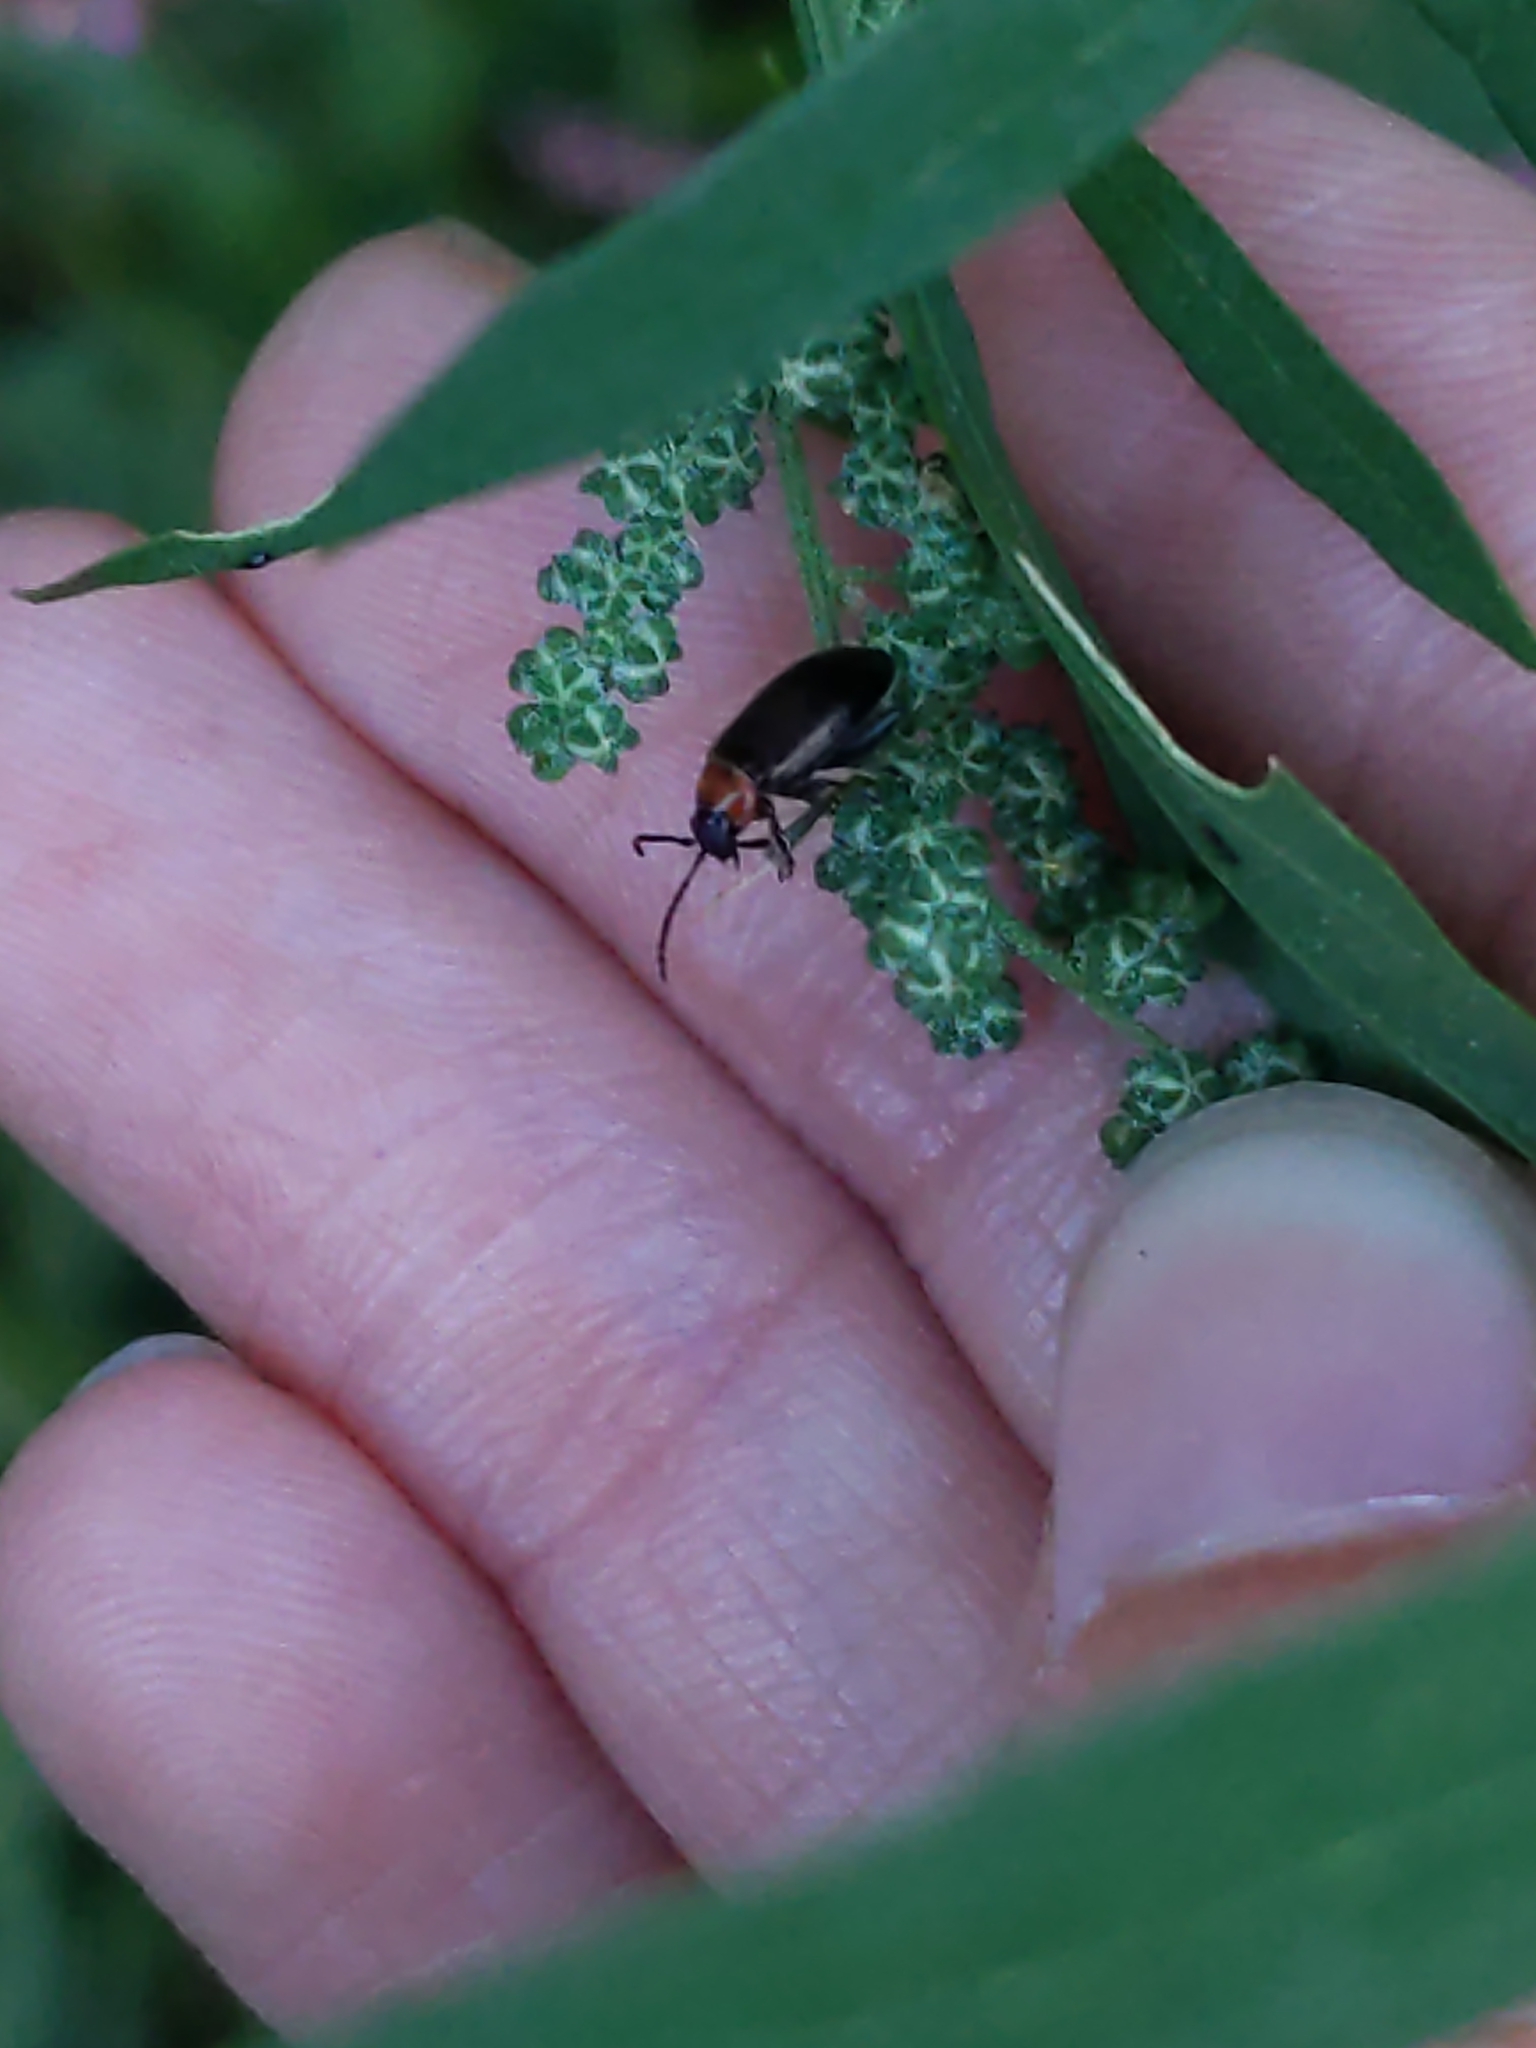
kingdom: Animalia
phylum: Arthropoda
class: Insecta
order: Coleoptera
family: Chrysomelidae
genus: Disonycha
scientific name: Disonycha xanthomelas
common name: Spinach flea beetle
